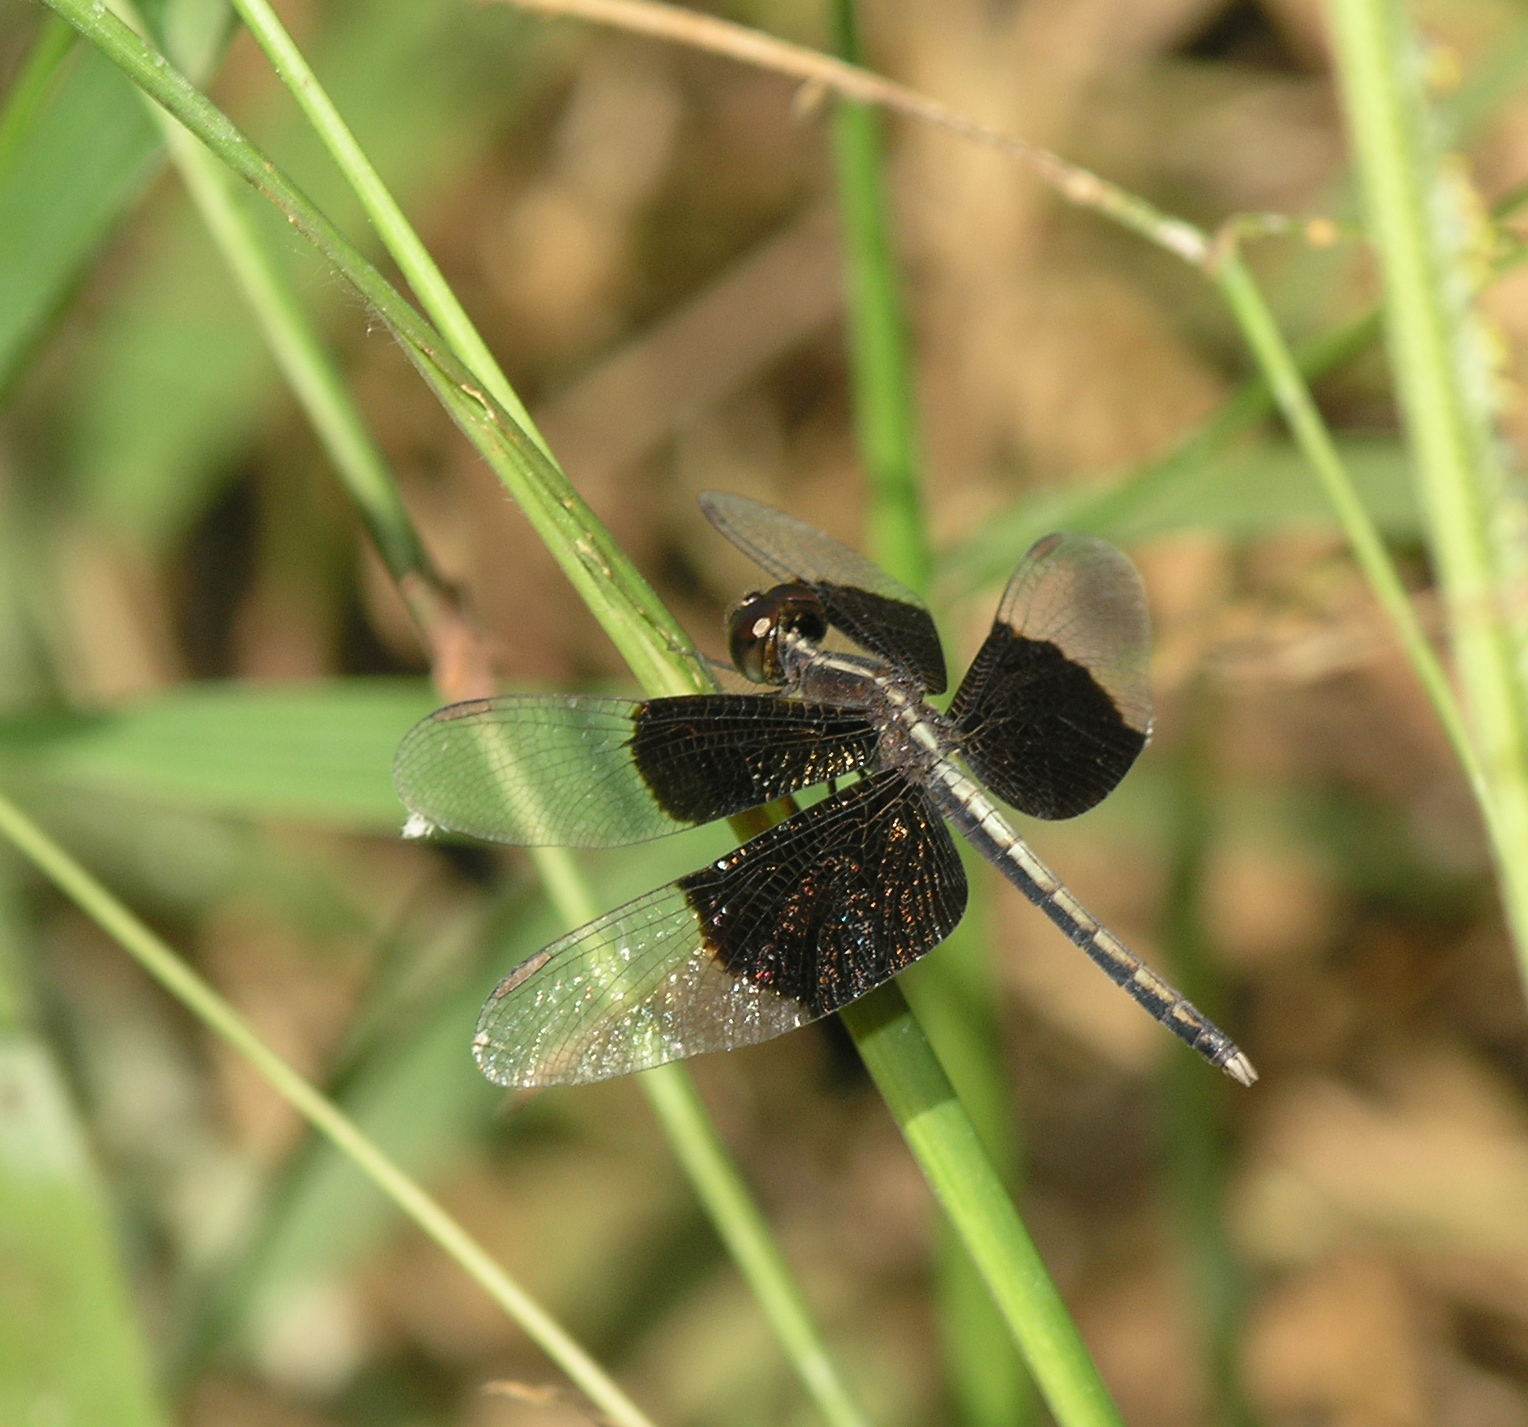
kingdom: Animalia
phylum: Arthropoda
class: Insecta
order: Odonata
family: Libellulidae
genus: Neurothemis
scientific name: Neurothemis tullia
